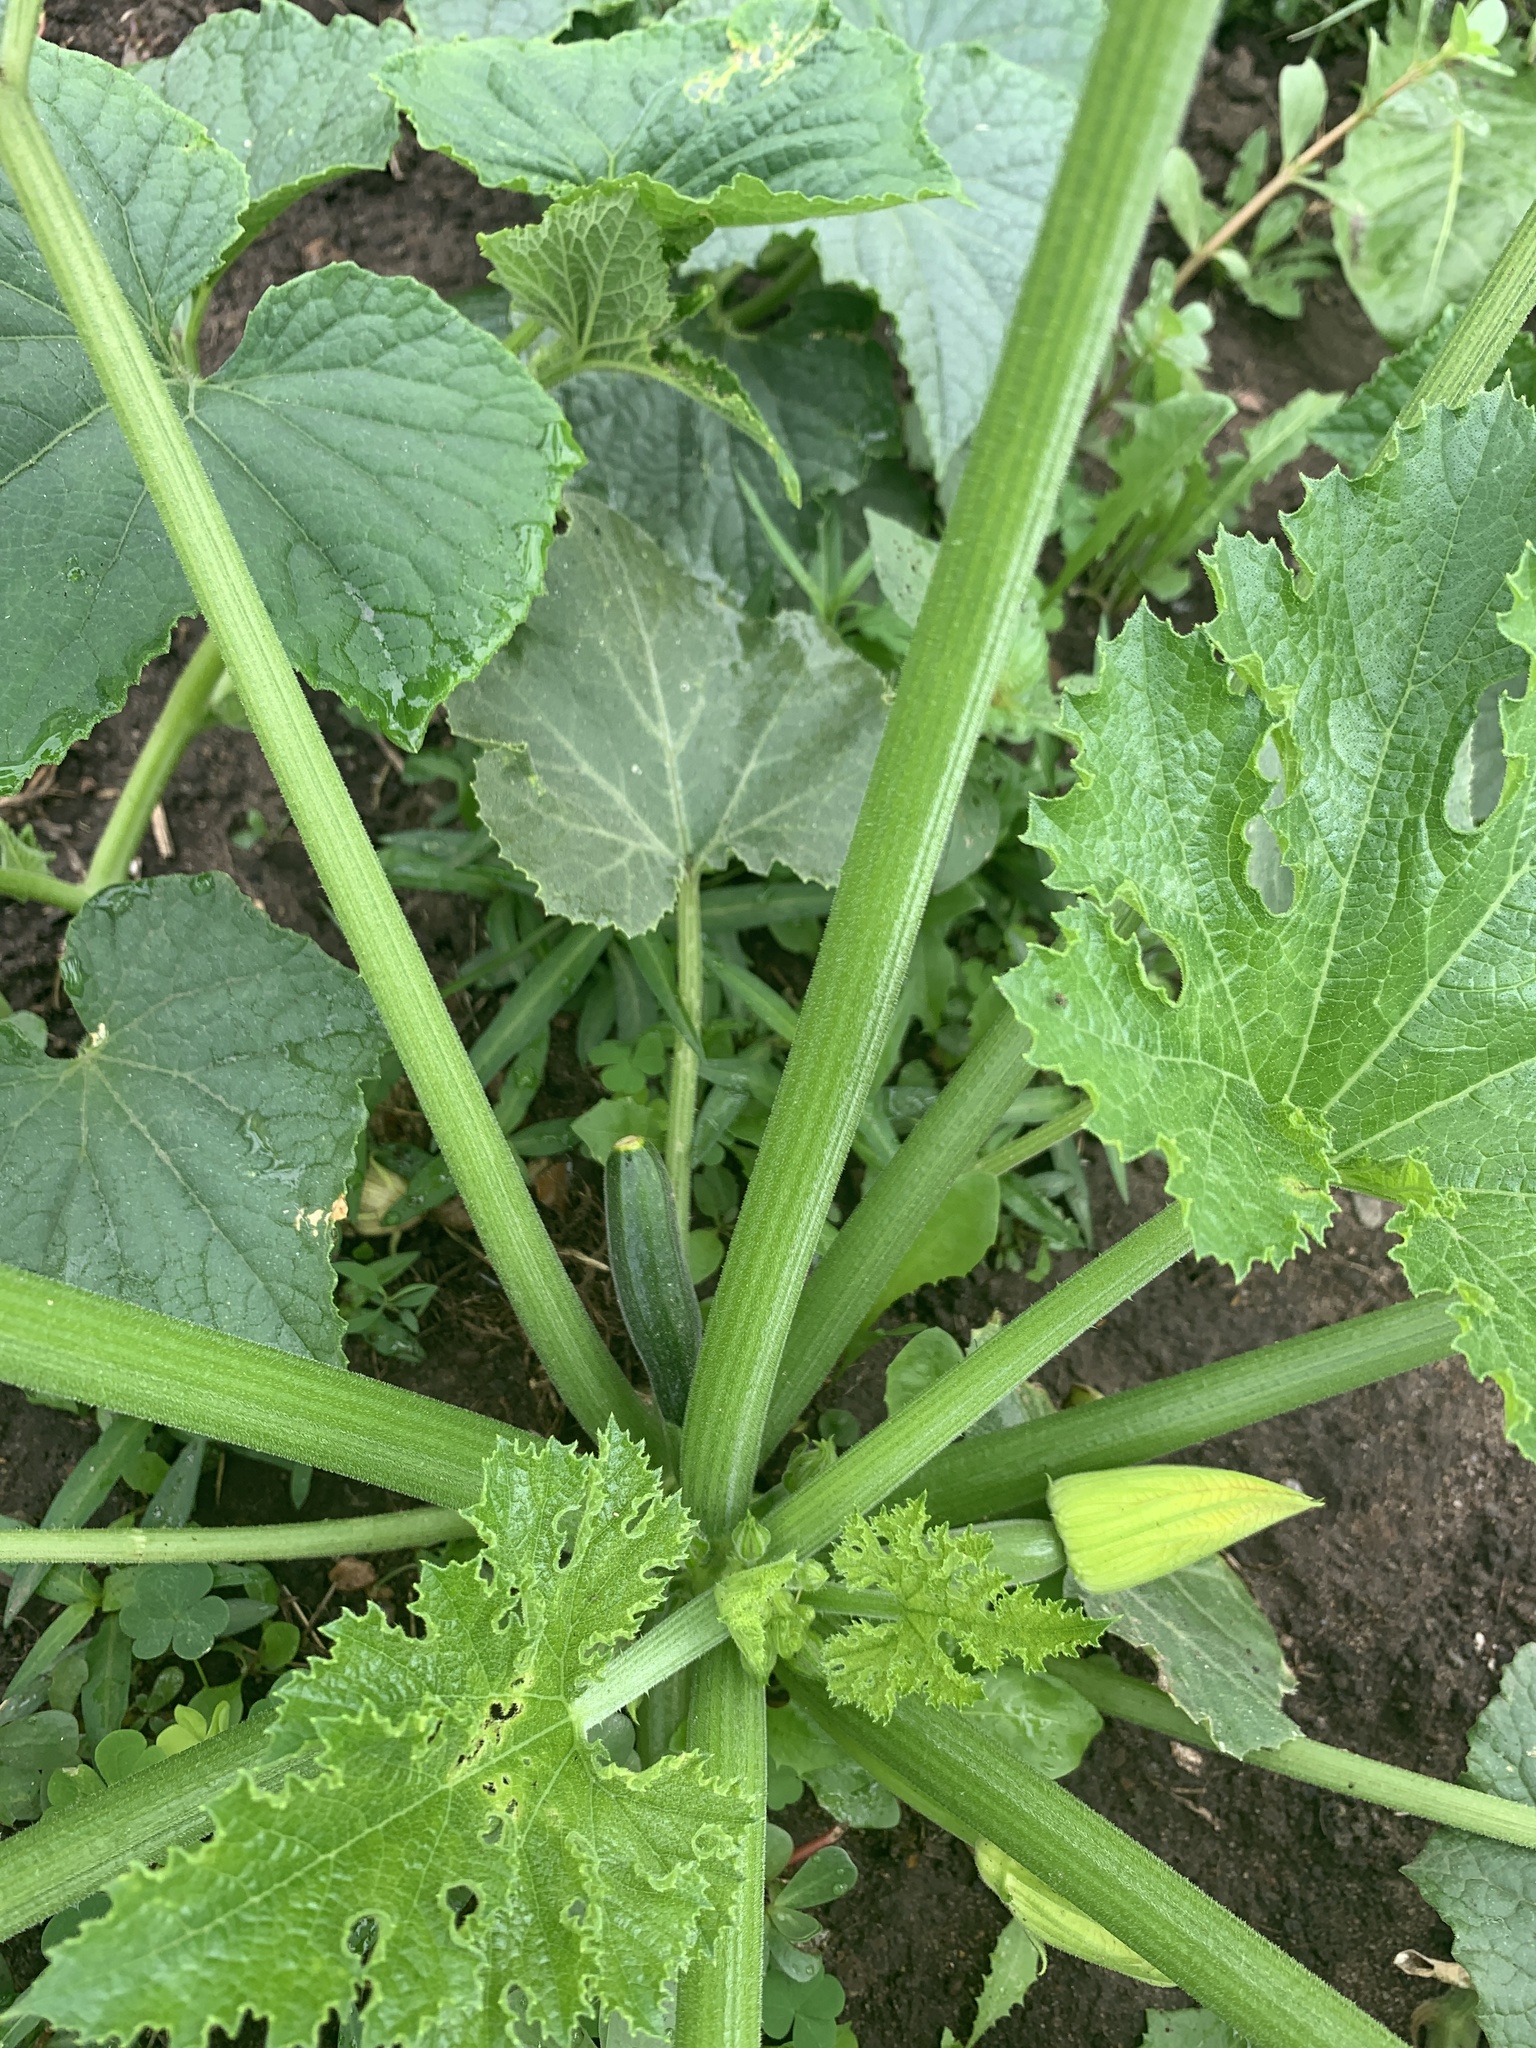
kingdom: Plantae
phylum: Tracheophyta
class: Magnoliopsida
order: Cucurbitales
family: Cucurbitaceae
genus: Cucurbita
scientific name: Cucurbita pepo
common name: Marrow
